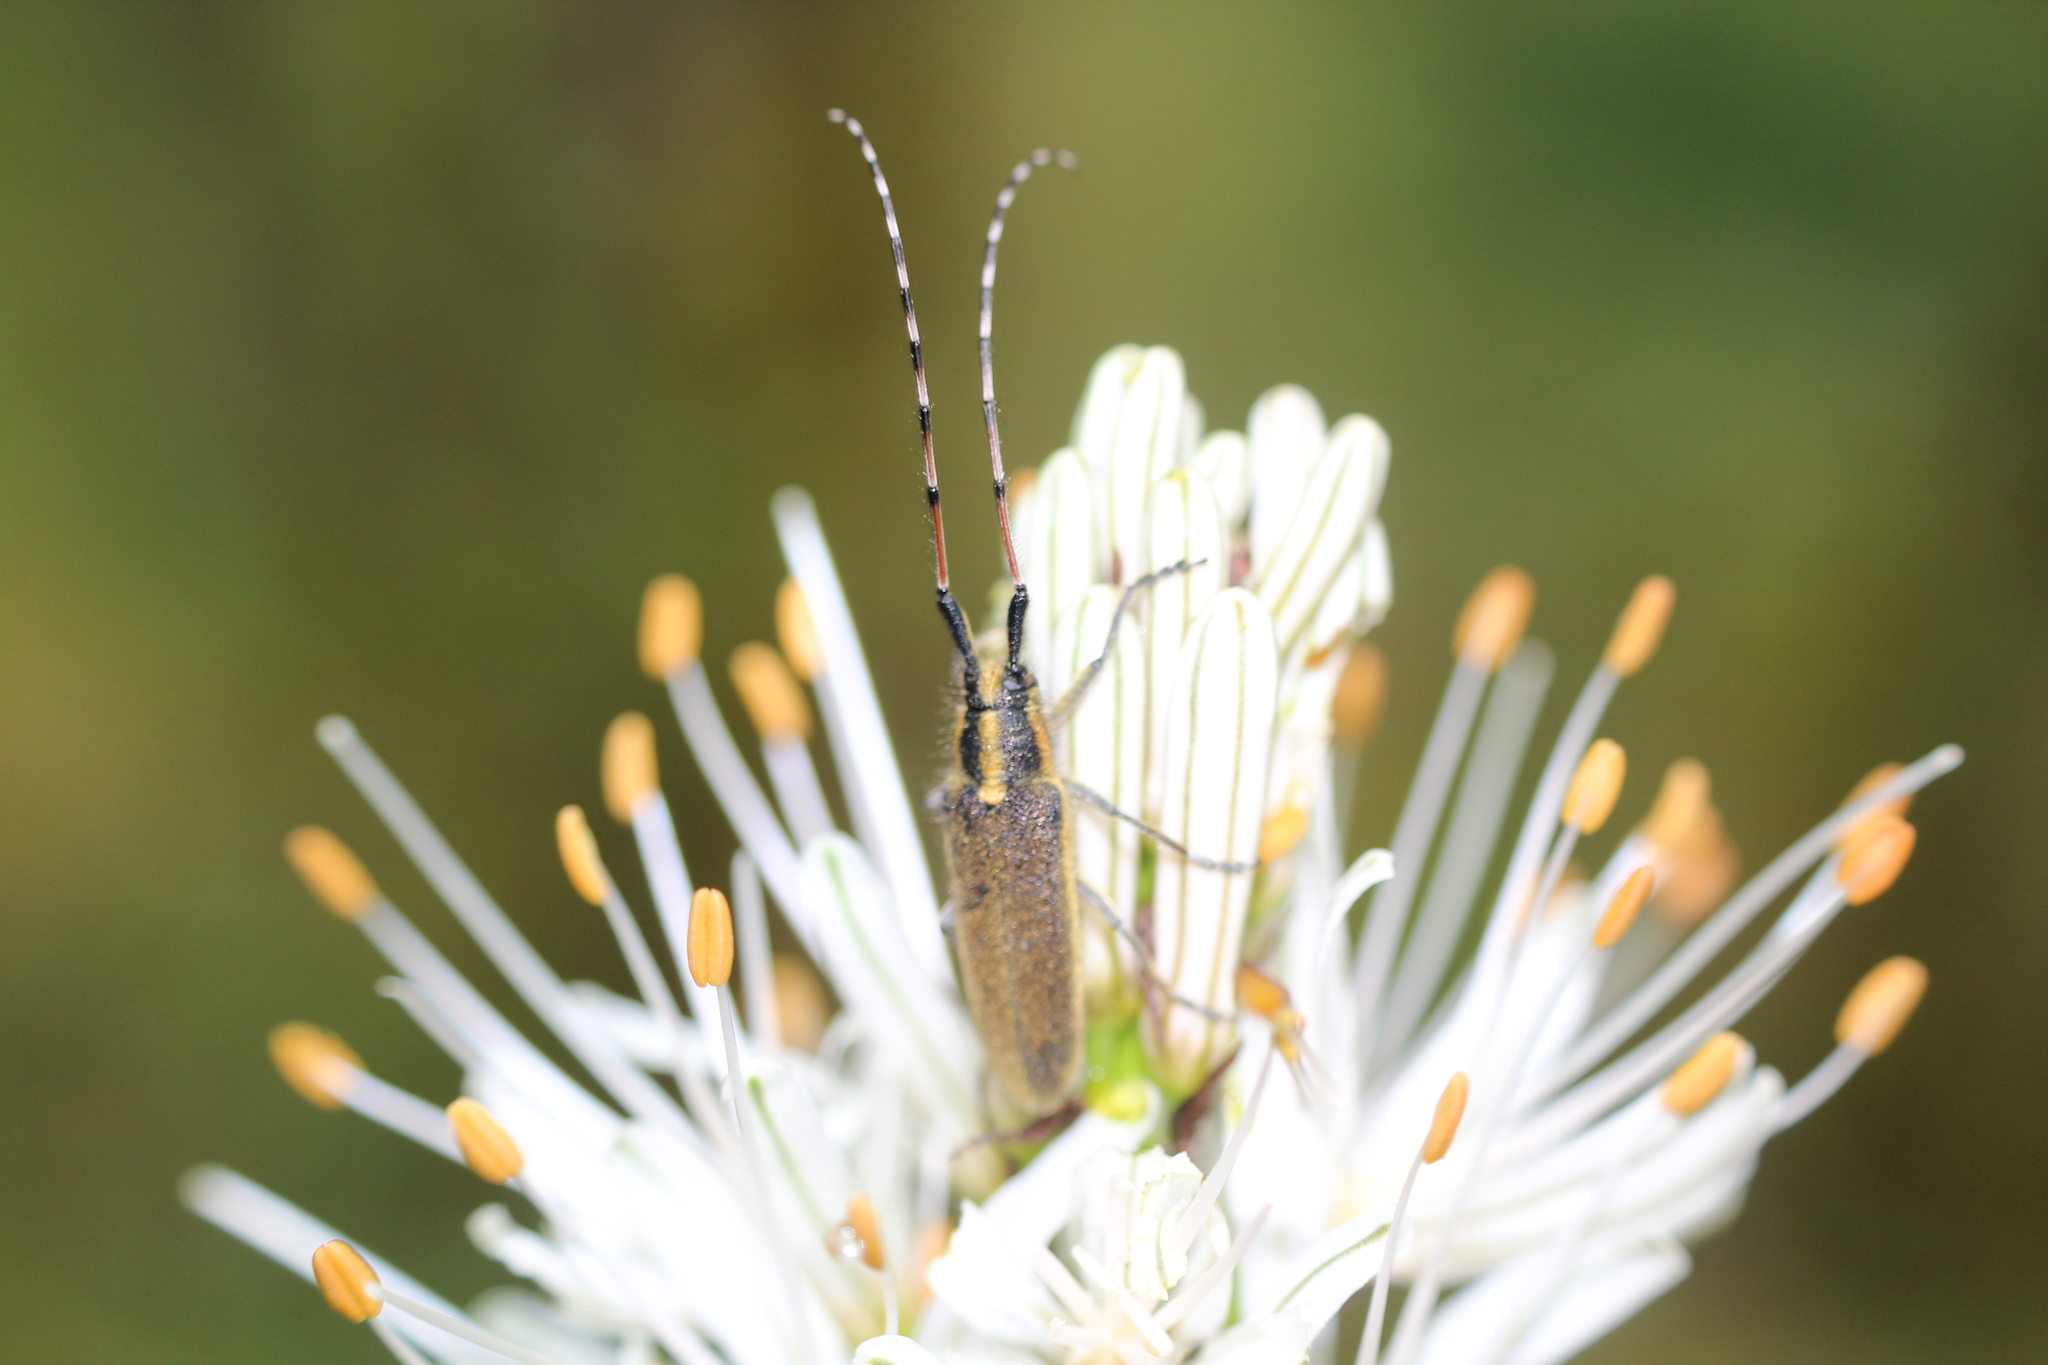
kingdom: Animalia
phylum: Arthropoda
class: Insecta
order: Coleoptera
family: Cerambycidae
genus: Agapanthia
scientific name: Agapanthia asphodeli
